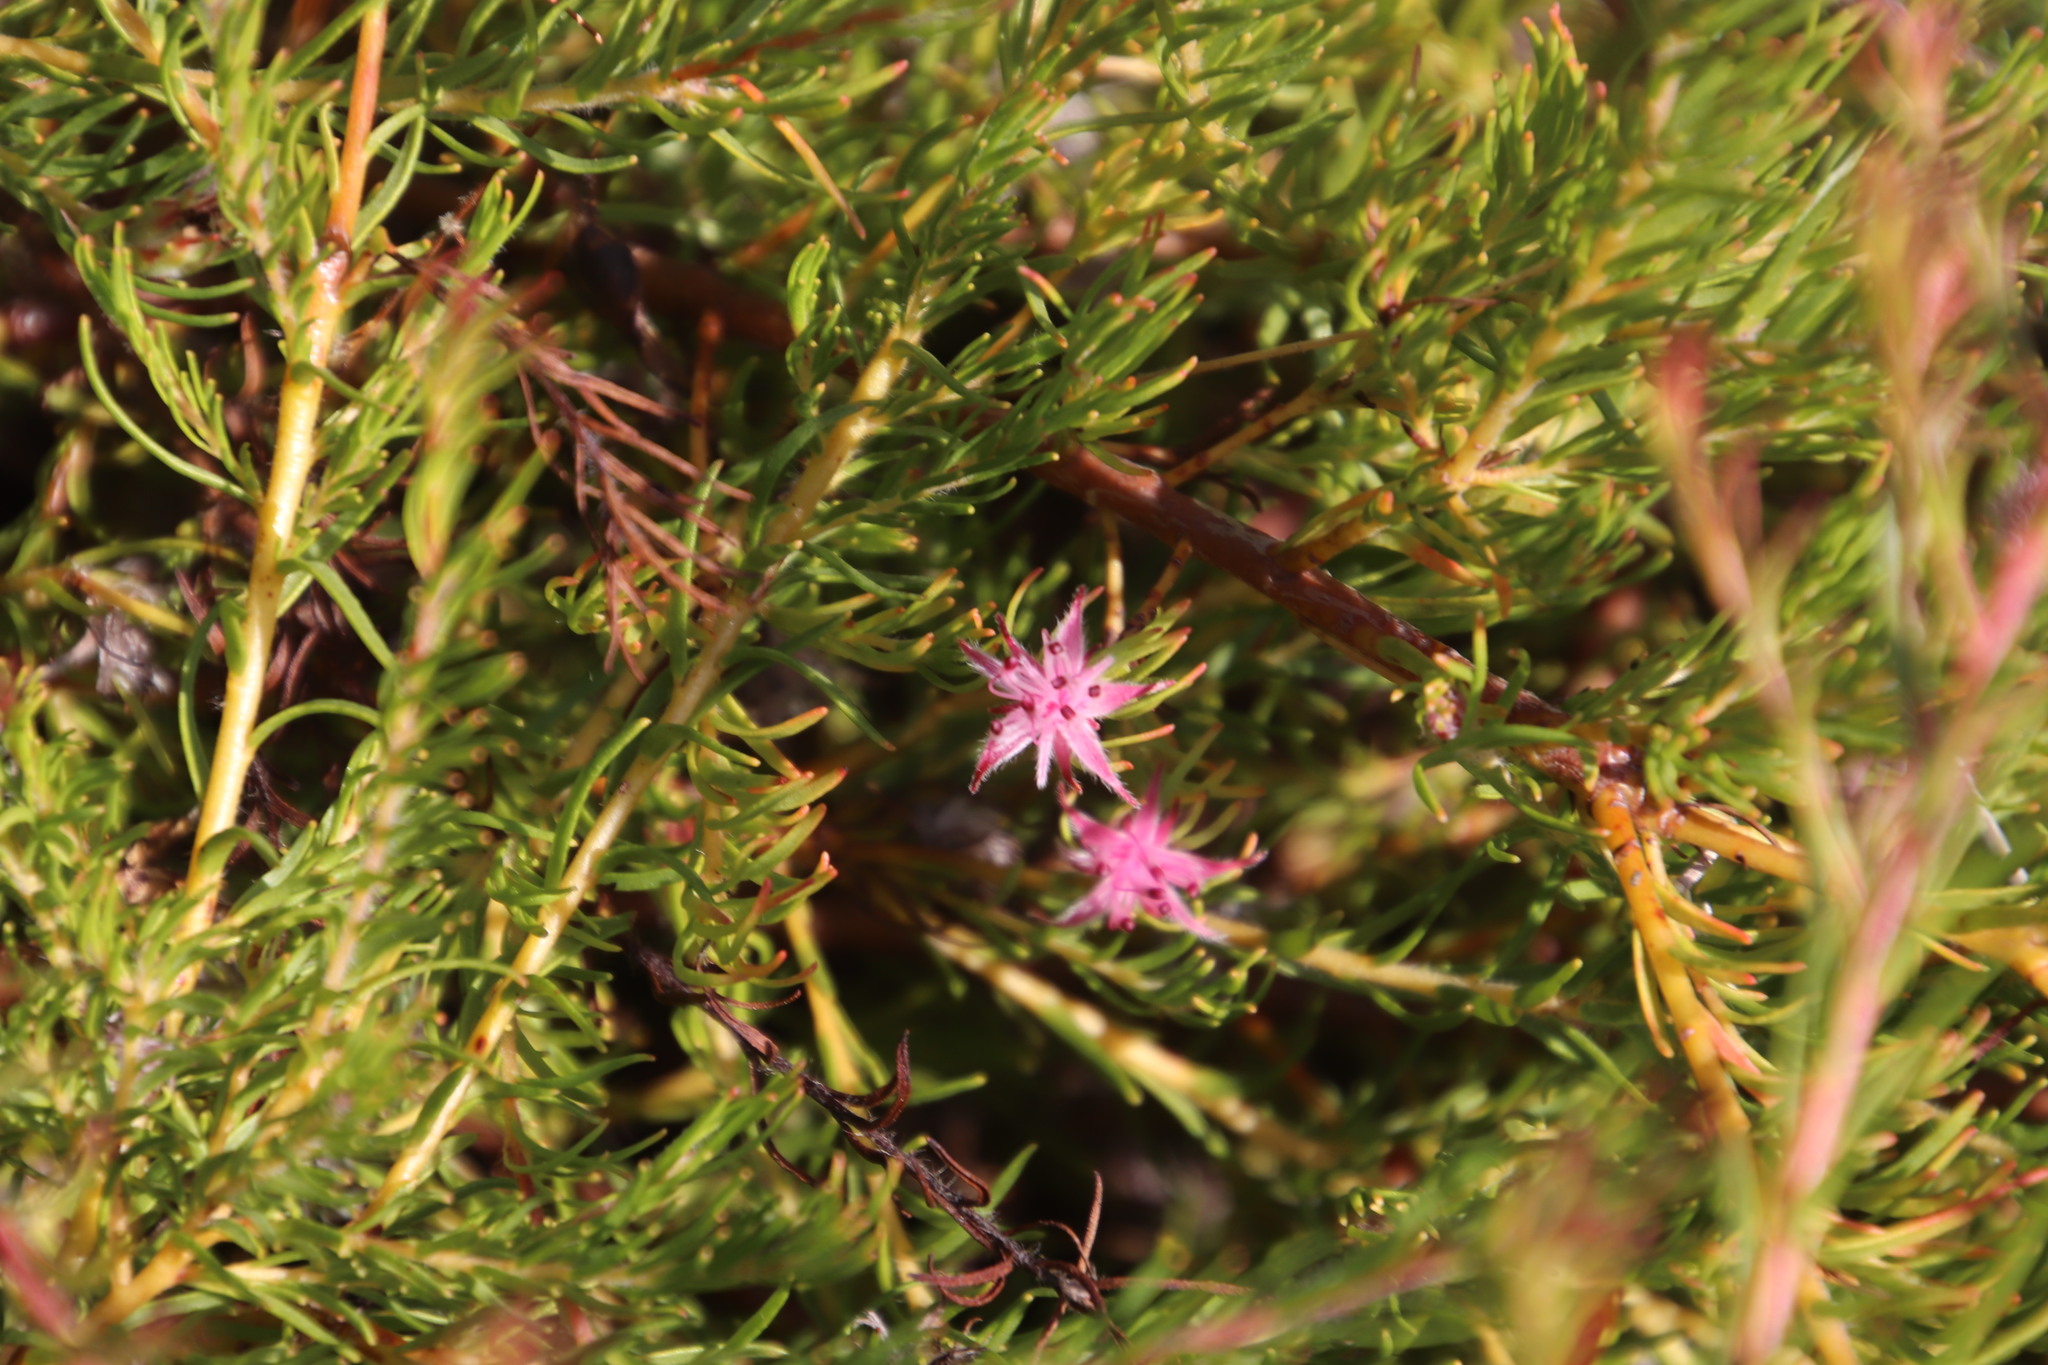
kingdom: Plantae
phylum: Tracheophyta
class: Magnoliopsida
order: Proteales
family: Proteaceae
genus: Diastella
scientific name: Diastella proteoides
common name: Flats silkypuff
